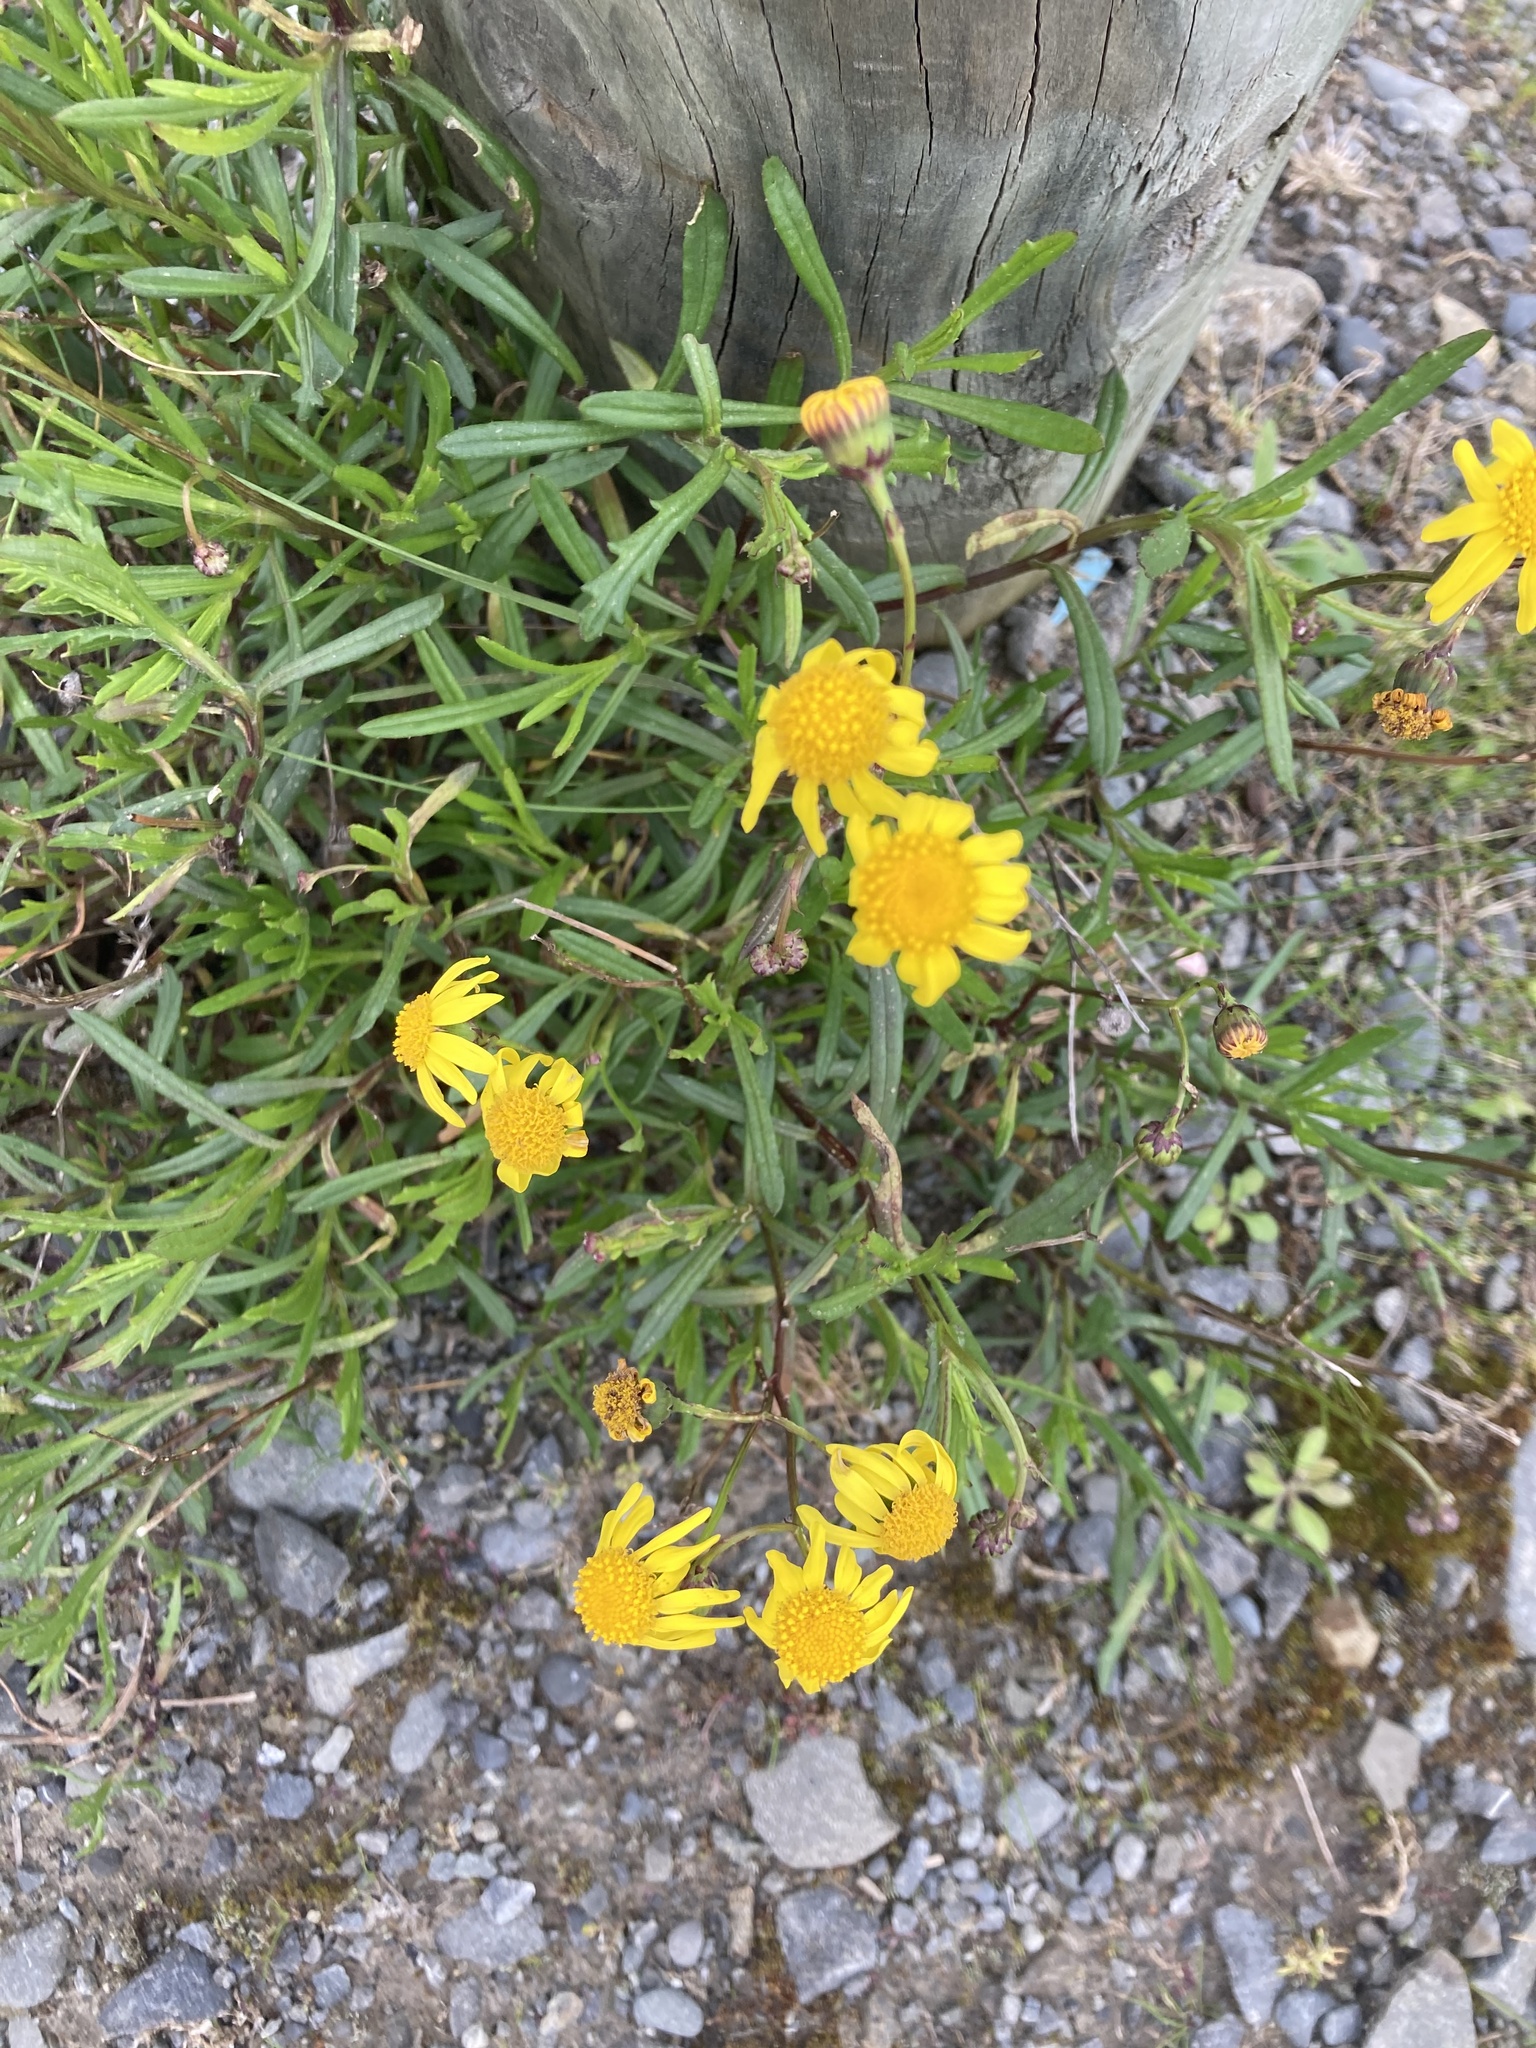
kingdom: Plantae
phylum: Tracheophyta
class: Magnoliopsida
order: Asterales
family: Asteraceae
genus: Senecio
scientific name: Senecio skirrhodon
